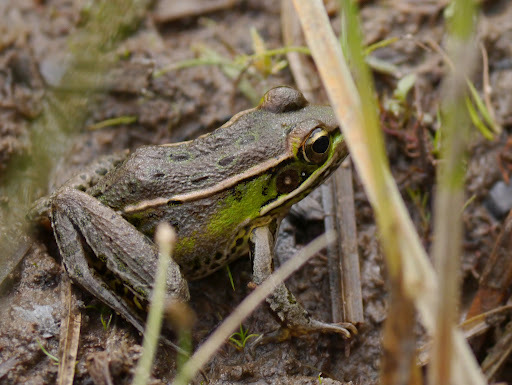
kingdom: Animalia
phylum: Chordata
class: Amphibia
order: Anura
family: Ranidae
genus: Lithobates
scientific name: Lithobates sphenocephalus
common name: Southern leopard frog
